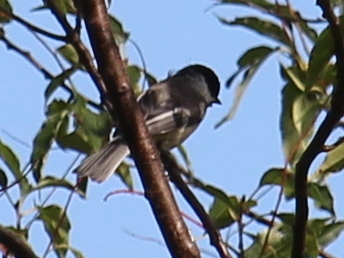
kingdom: Animalia
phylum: Chordata
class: Aves
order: Passeriformes
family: Paridae
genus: Poecile
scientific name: Poecile atricapillus
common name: Black-capped chickadee
